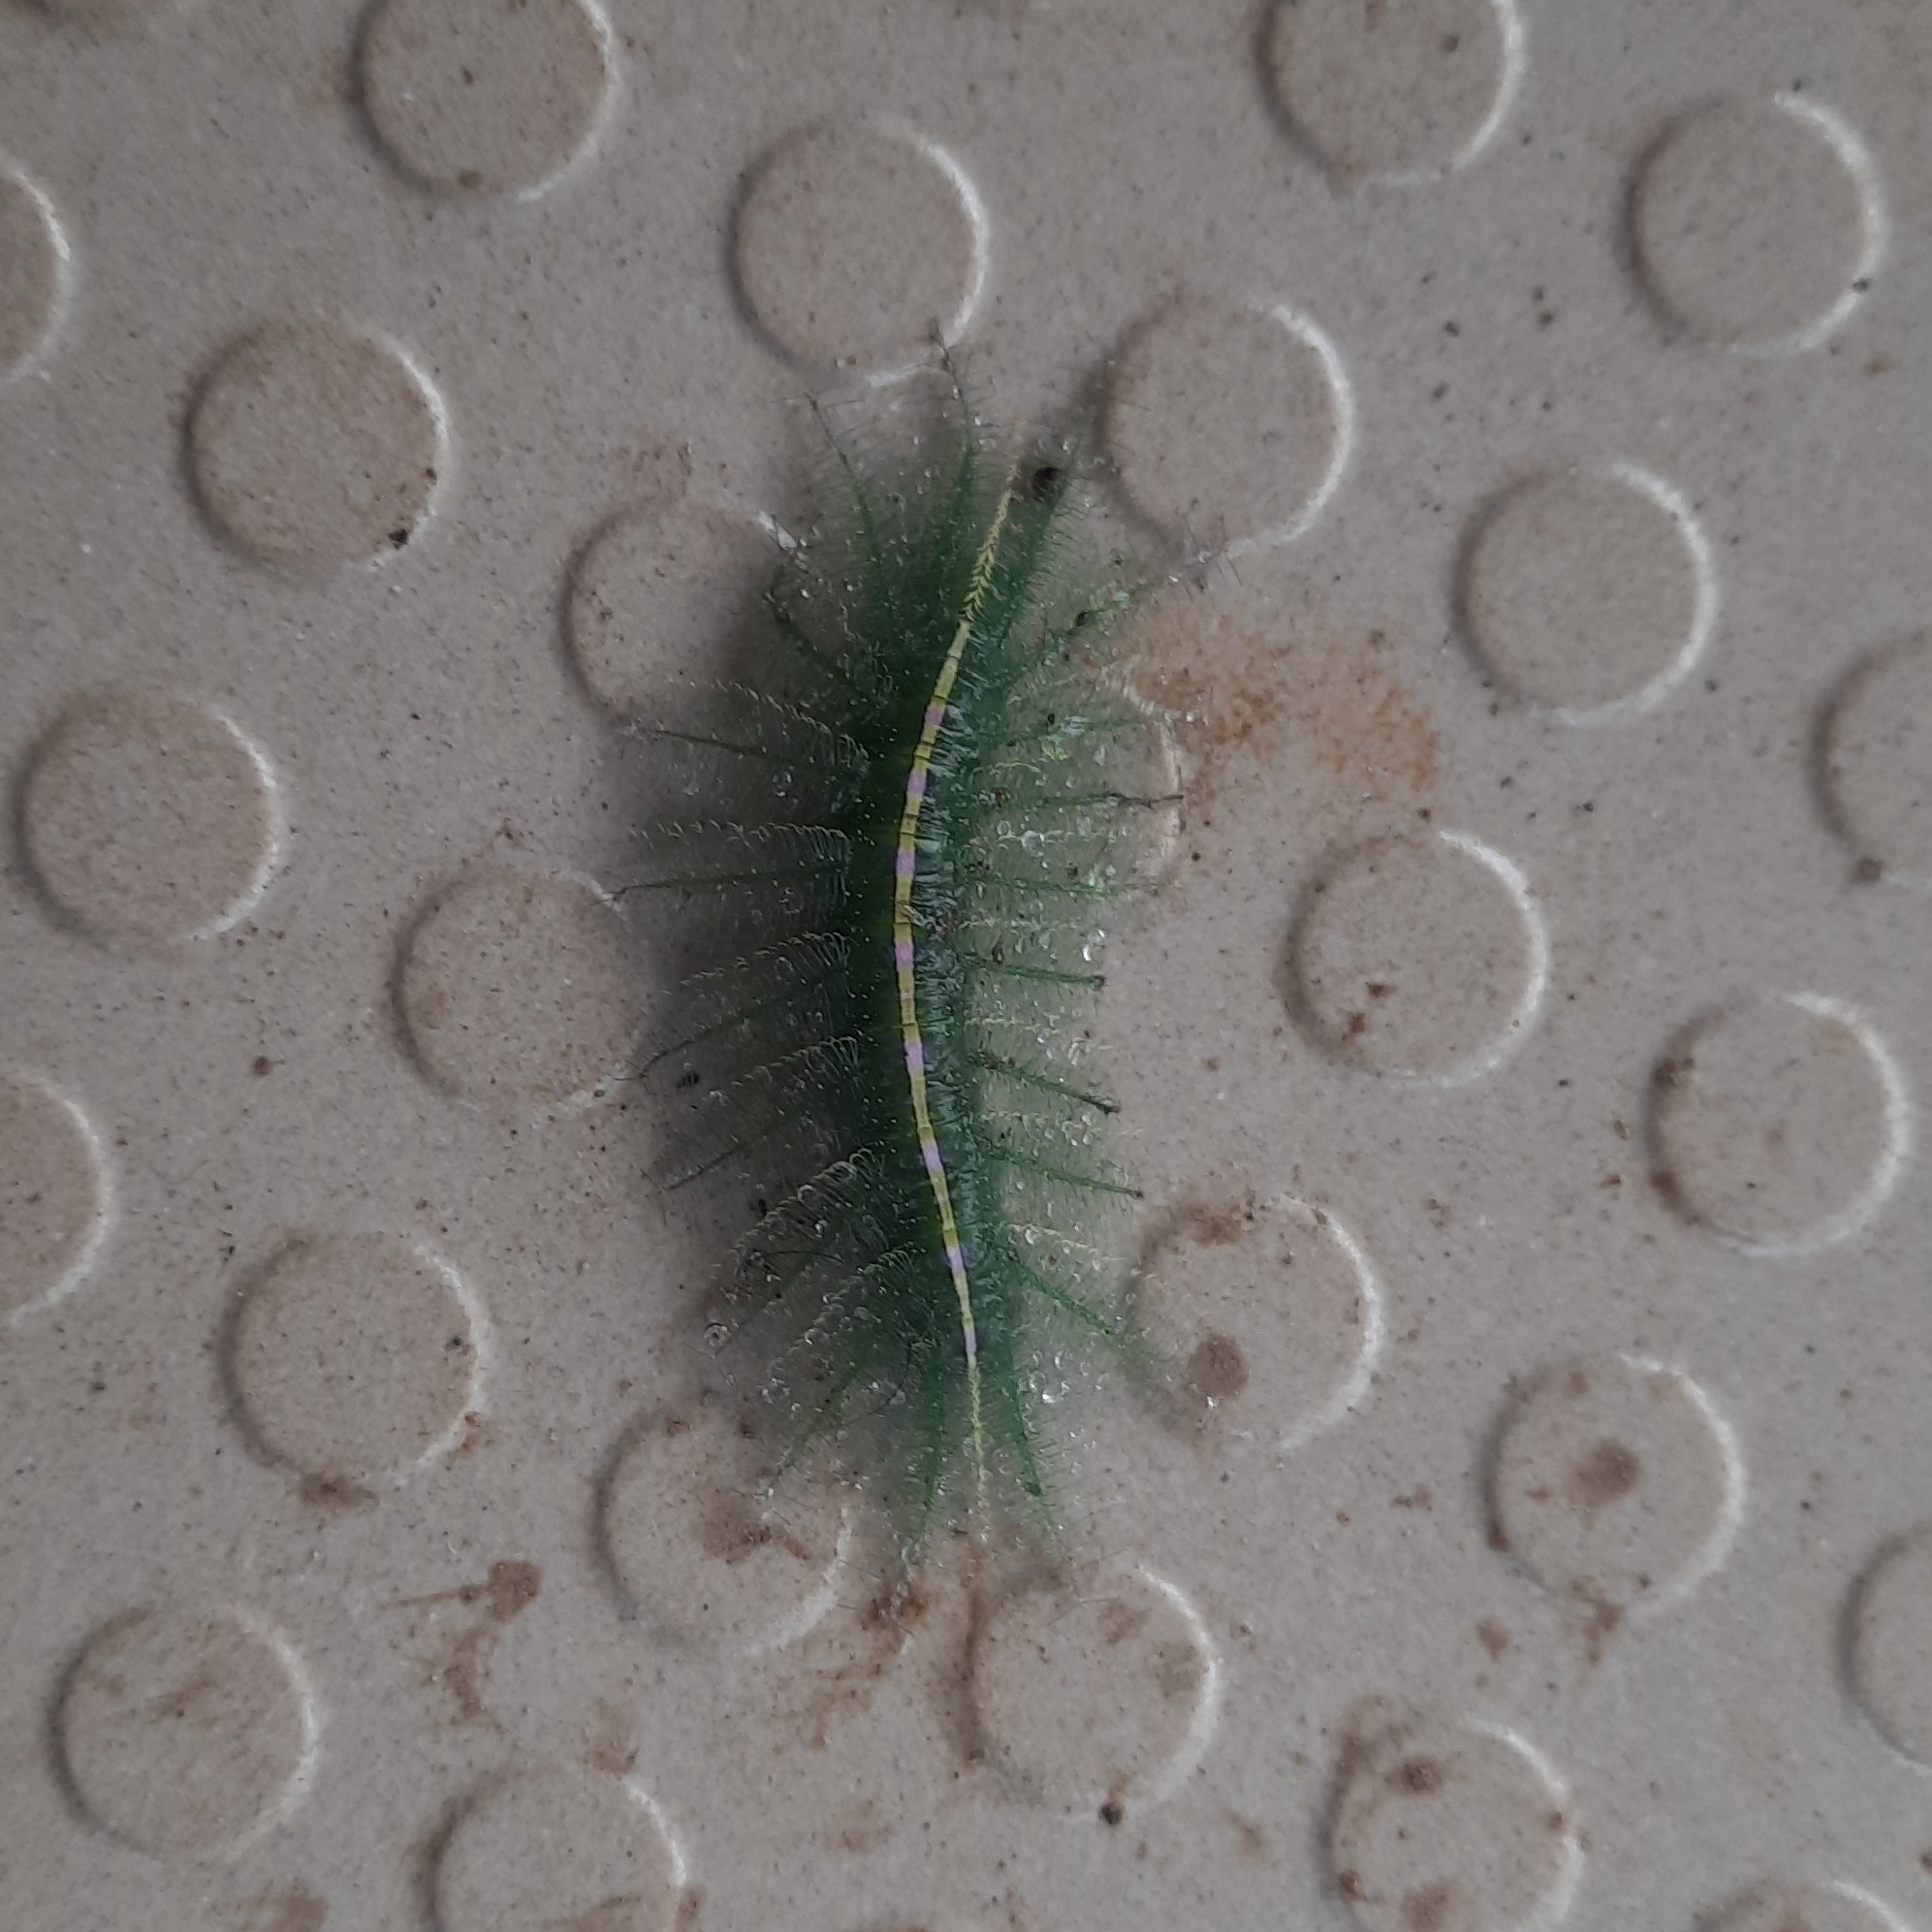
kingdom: Animalia
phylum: Arthropoda
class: Insecta
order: Lepidoptera
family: Nymphalidae
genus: Euthalia
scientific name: Euthalia aconthea
